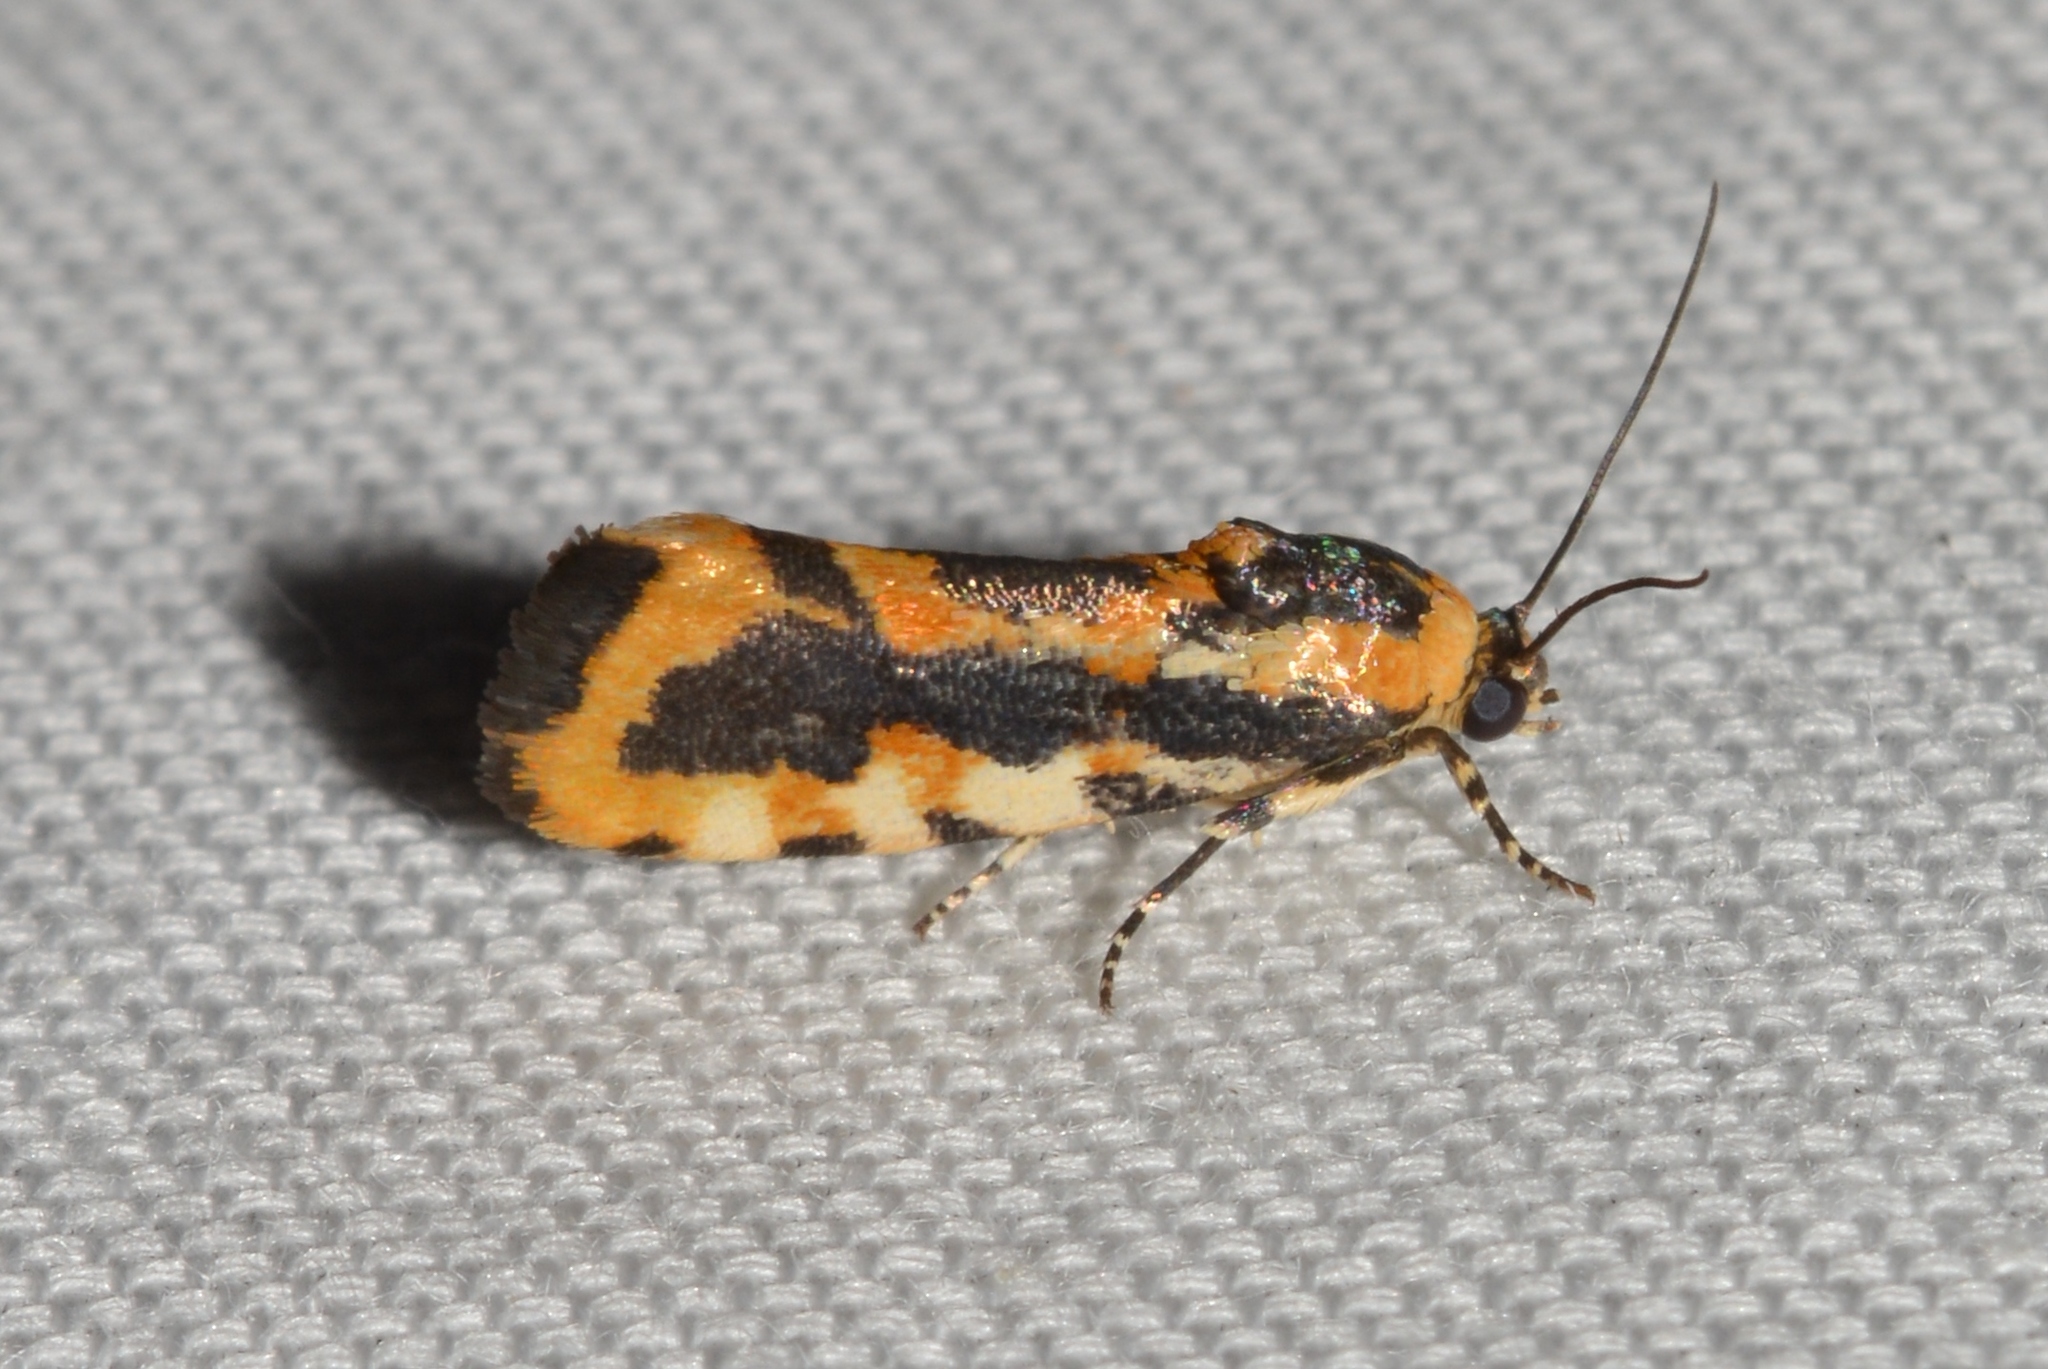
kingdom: Animalia
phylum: Arthropoda
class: Insecta
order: Lepidoptera
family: Noctuidae
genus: Acontia
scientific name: Acontia leo
